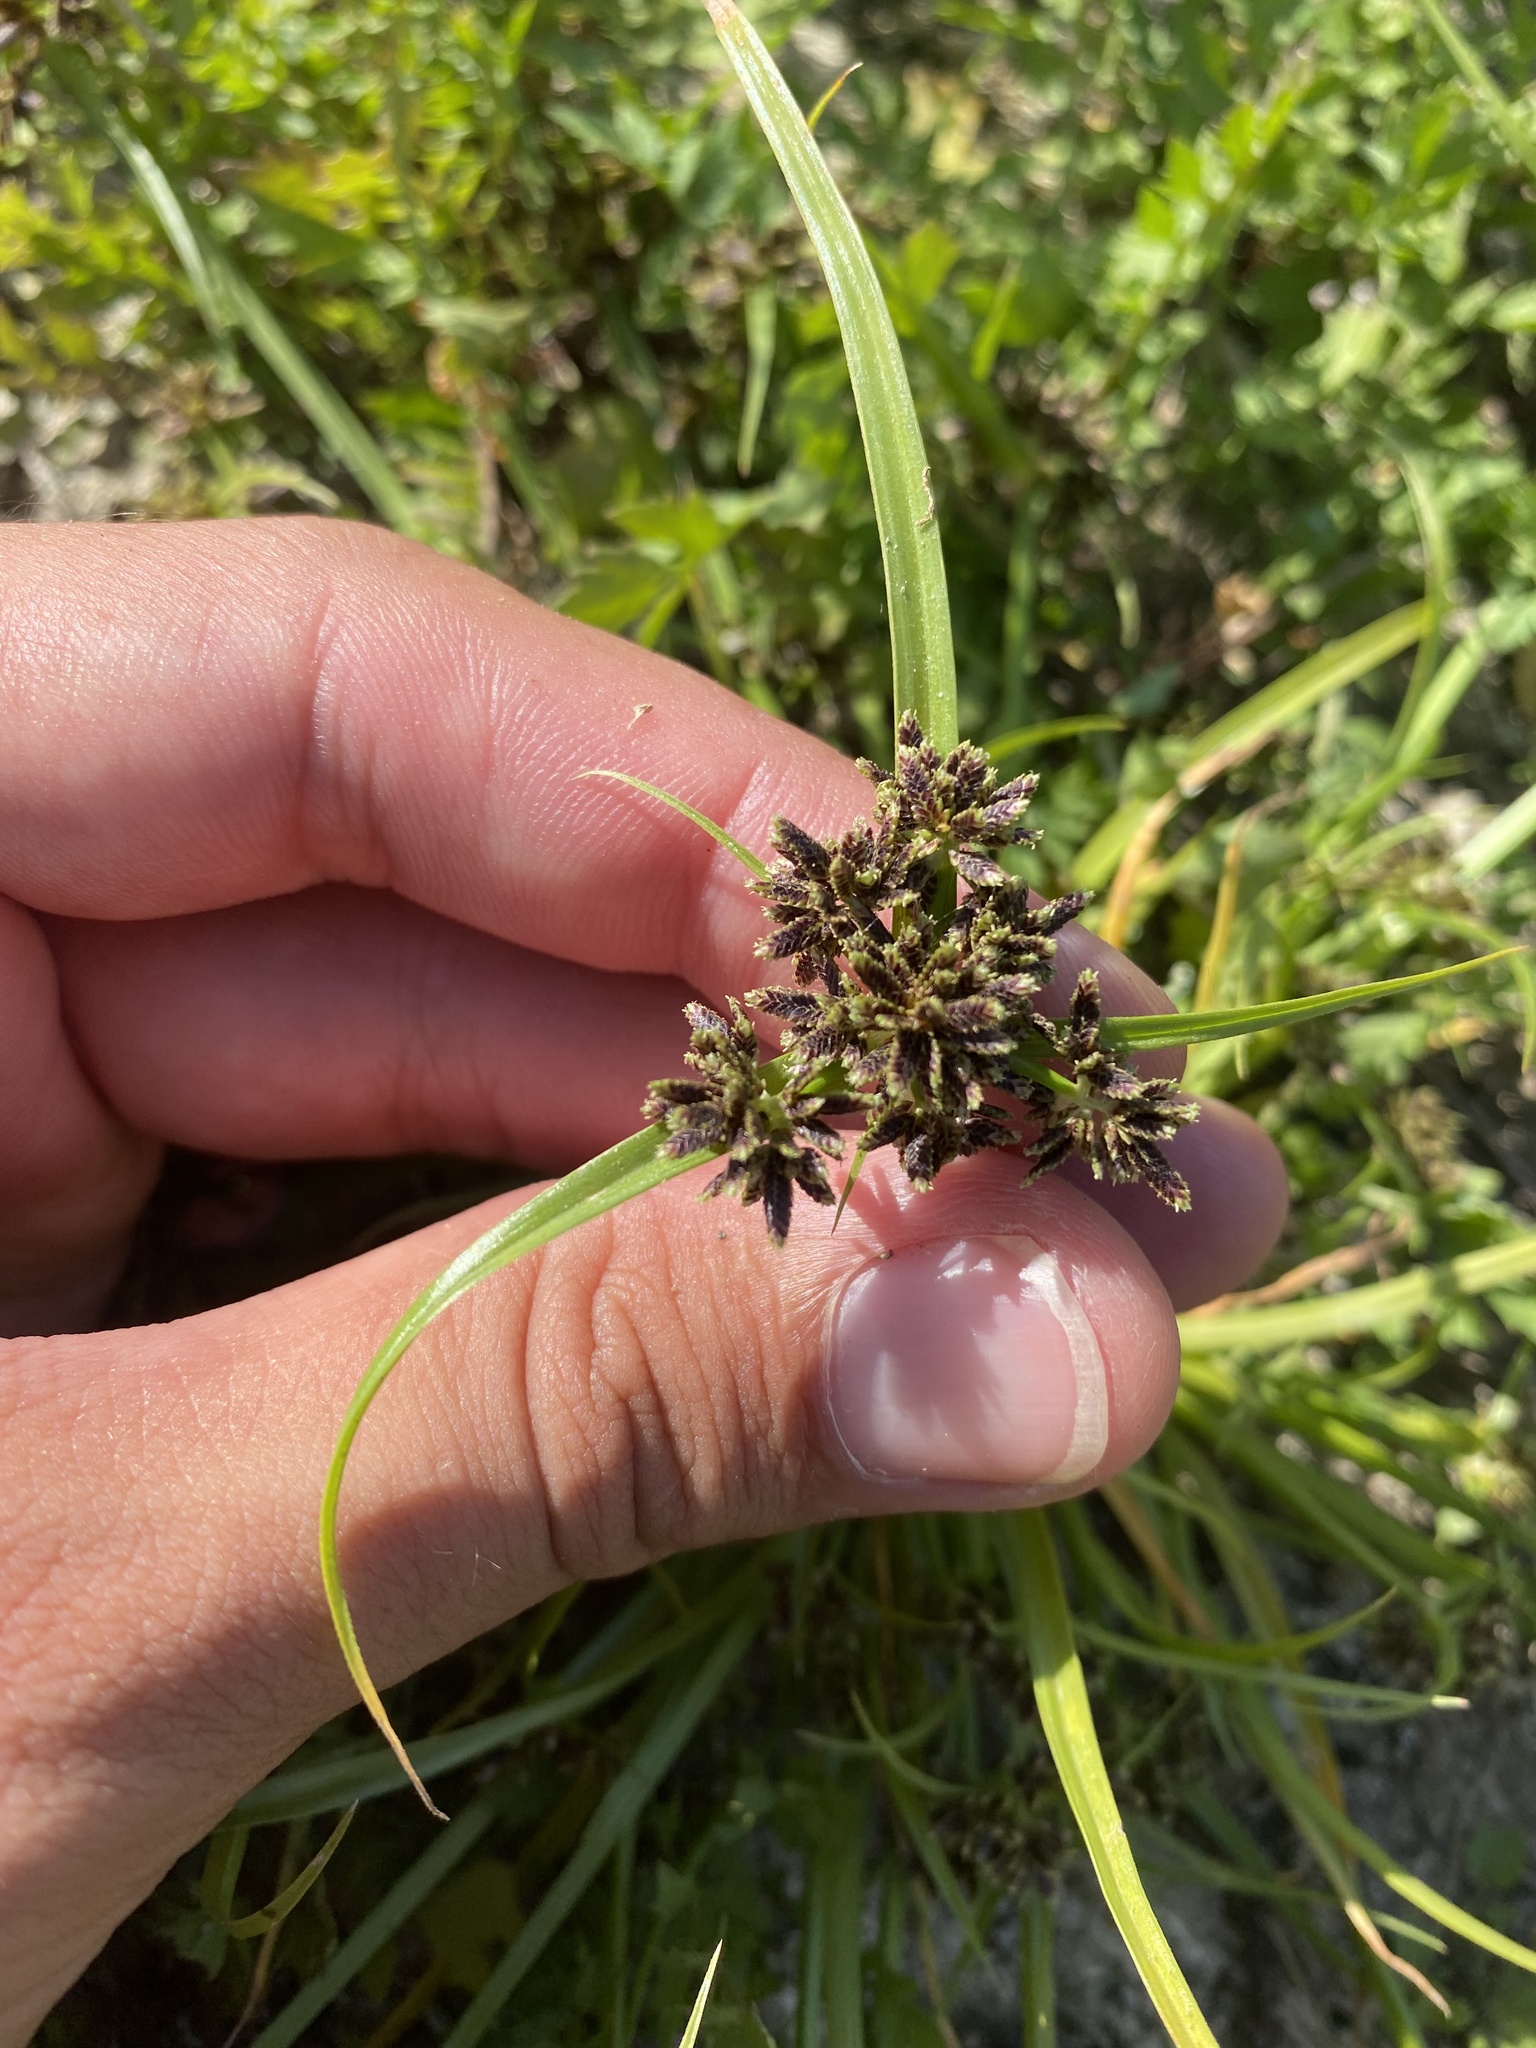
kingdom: Plantae
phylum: Tracheophyta
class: Liliopsida
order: Poales
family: Cyperaceae
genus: Cyperus
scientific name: Cyperus fuscus
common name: Brown galingale
